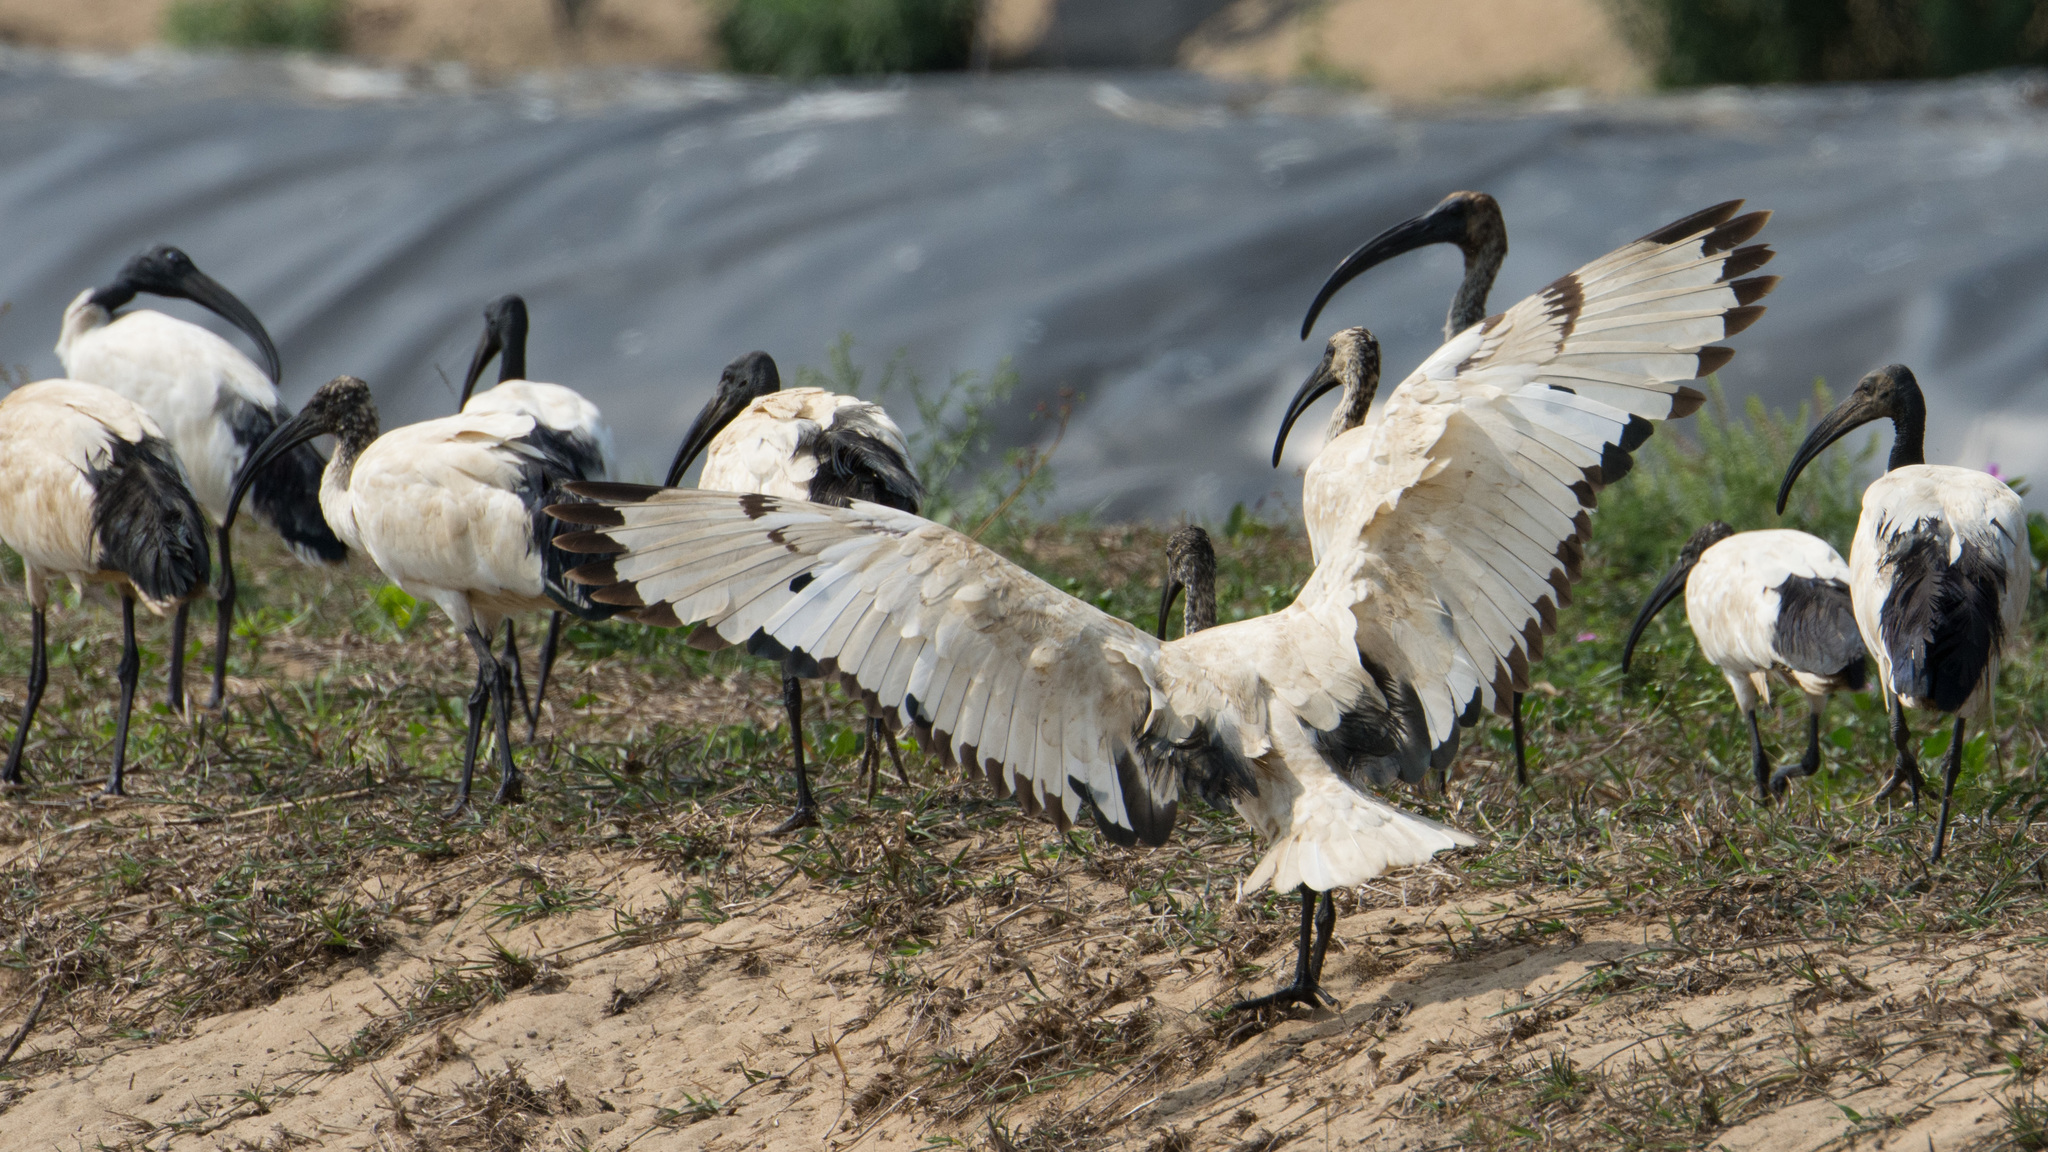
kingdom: Animalia
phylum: Chordata
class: Aves
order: Pelecaniformes
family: Threskiornithidae
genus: Threskiornis
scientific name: Threskiornis aethiopicus
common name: Sacred ibis
